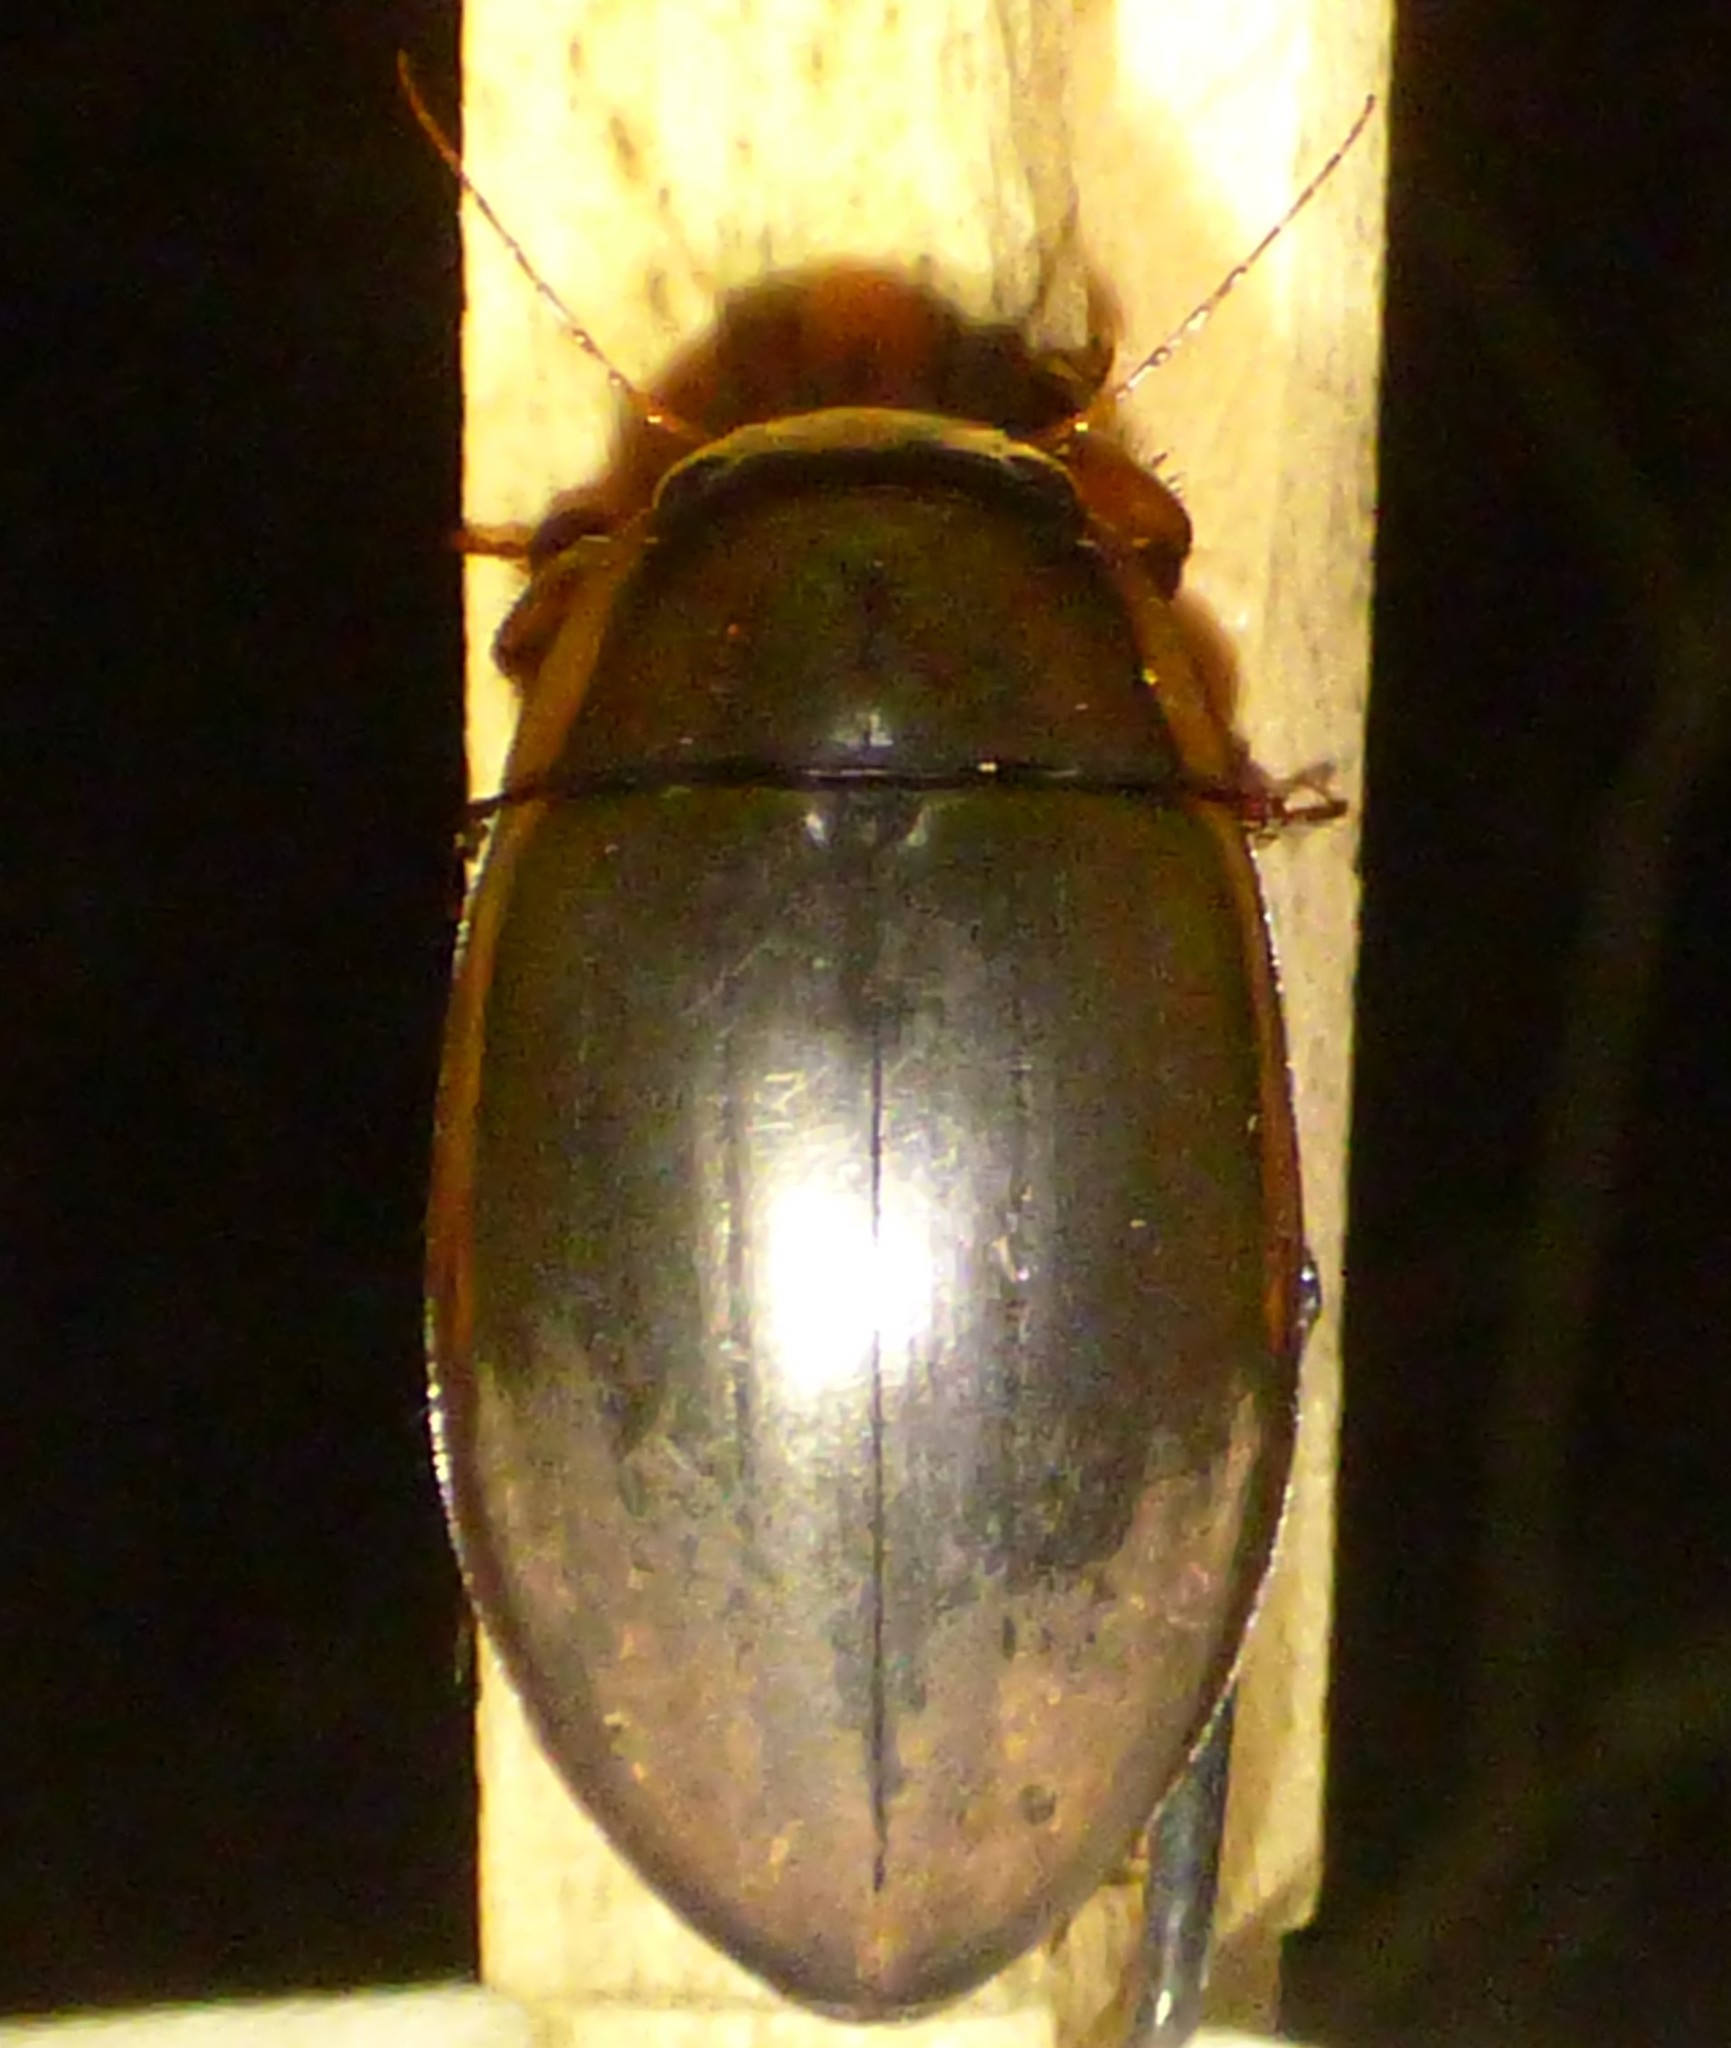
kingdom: Animalia
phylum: Arthropoda
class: Insecta
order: Coleoptera
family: Dytiscidae
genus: Dytiscus
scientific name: Dytiscus carolinus
